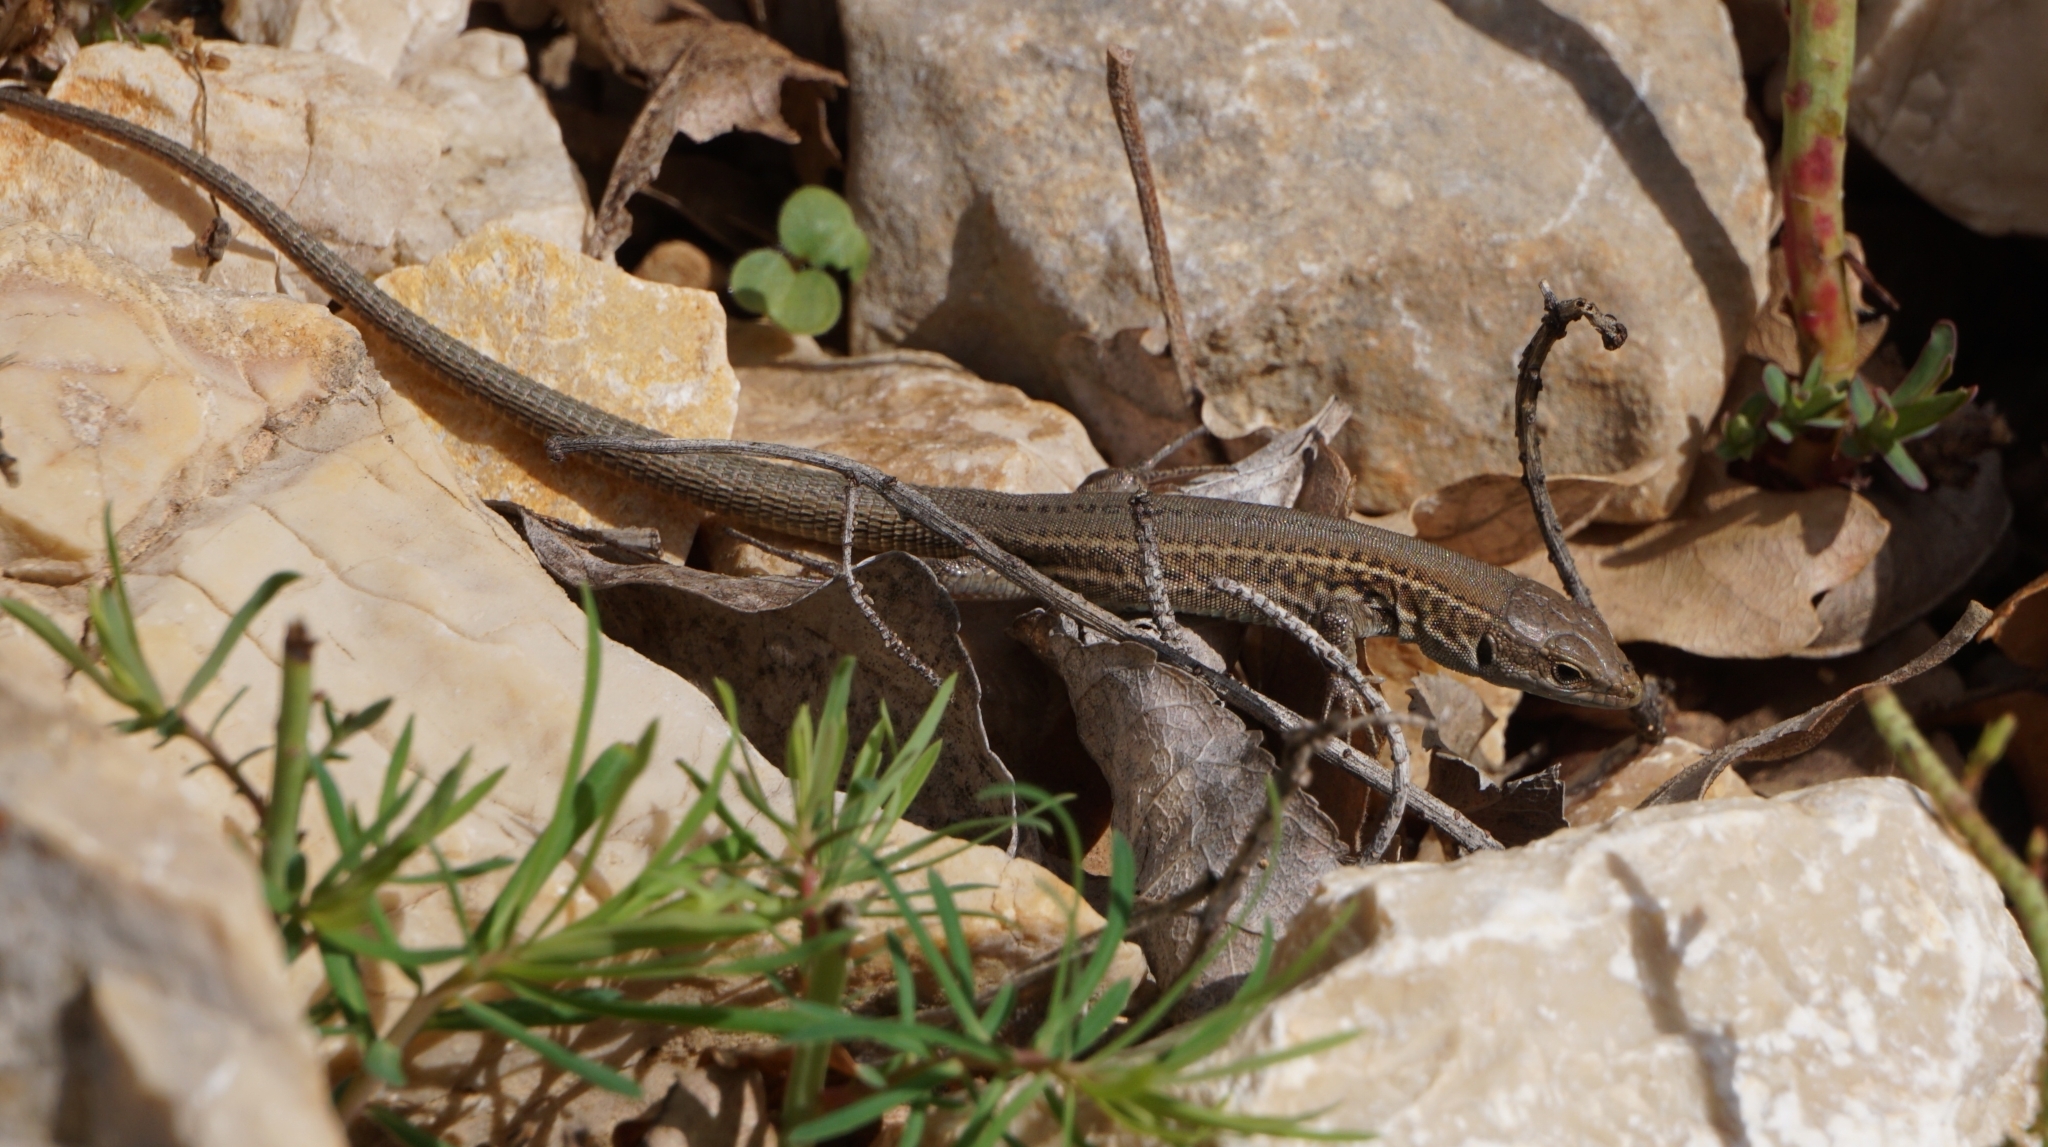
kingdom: Animalia
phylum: Chordata
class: Squamata
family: Lacertidae
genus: Podarcis
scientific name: Podarcis melisellensis
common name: Dalmatian wall lizard
